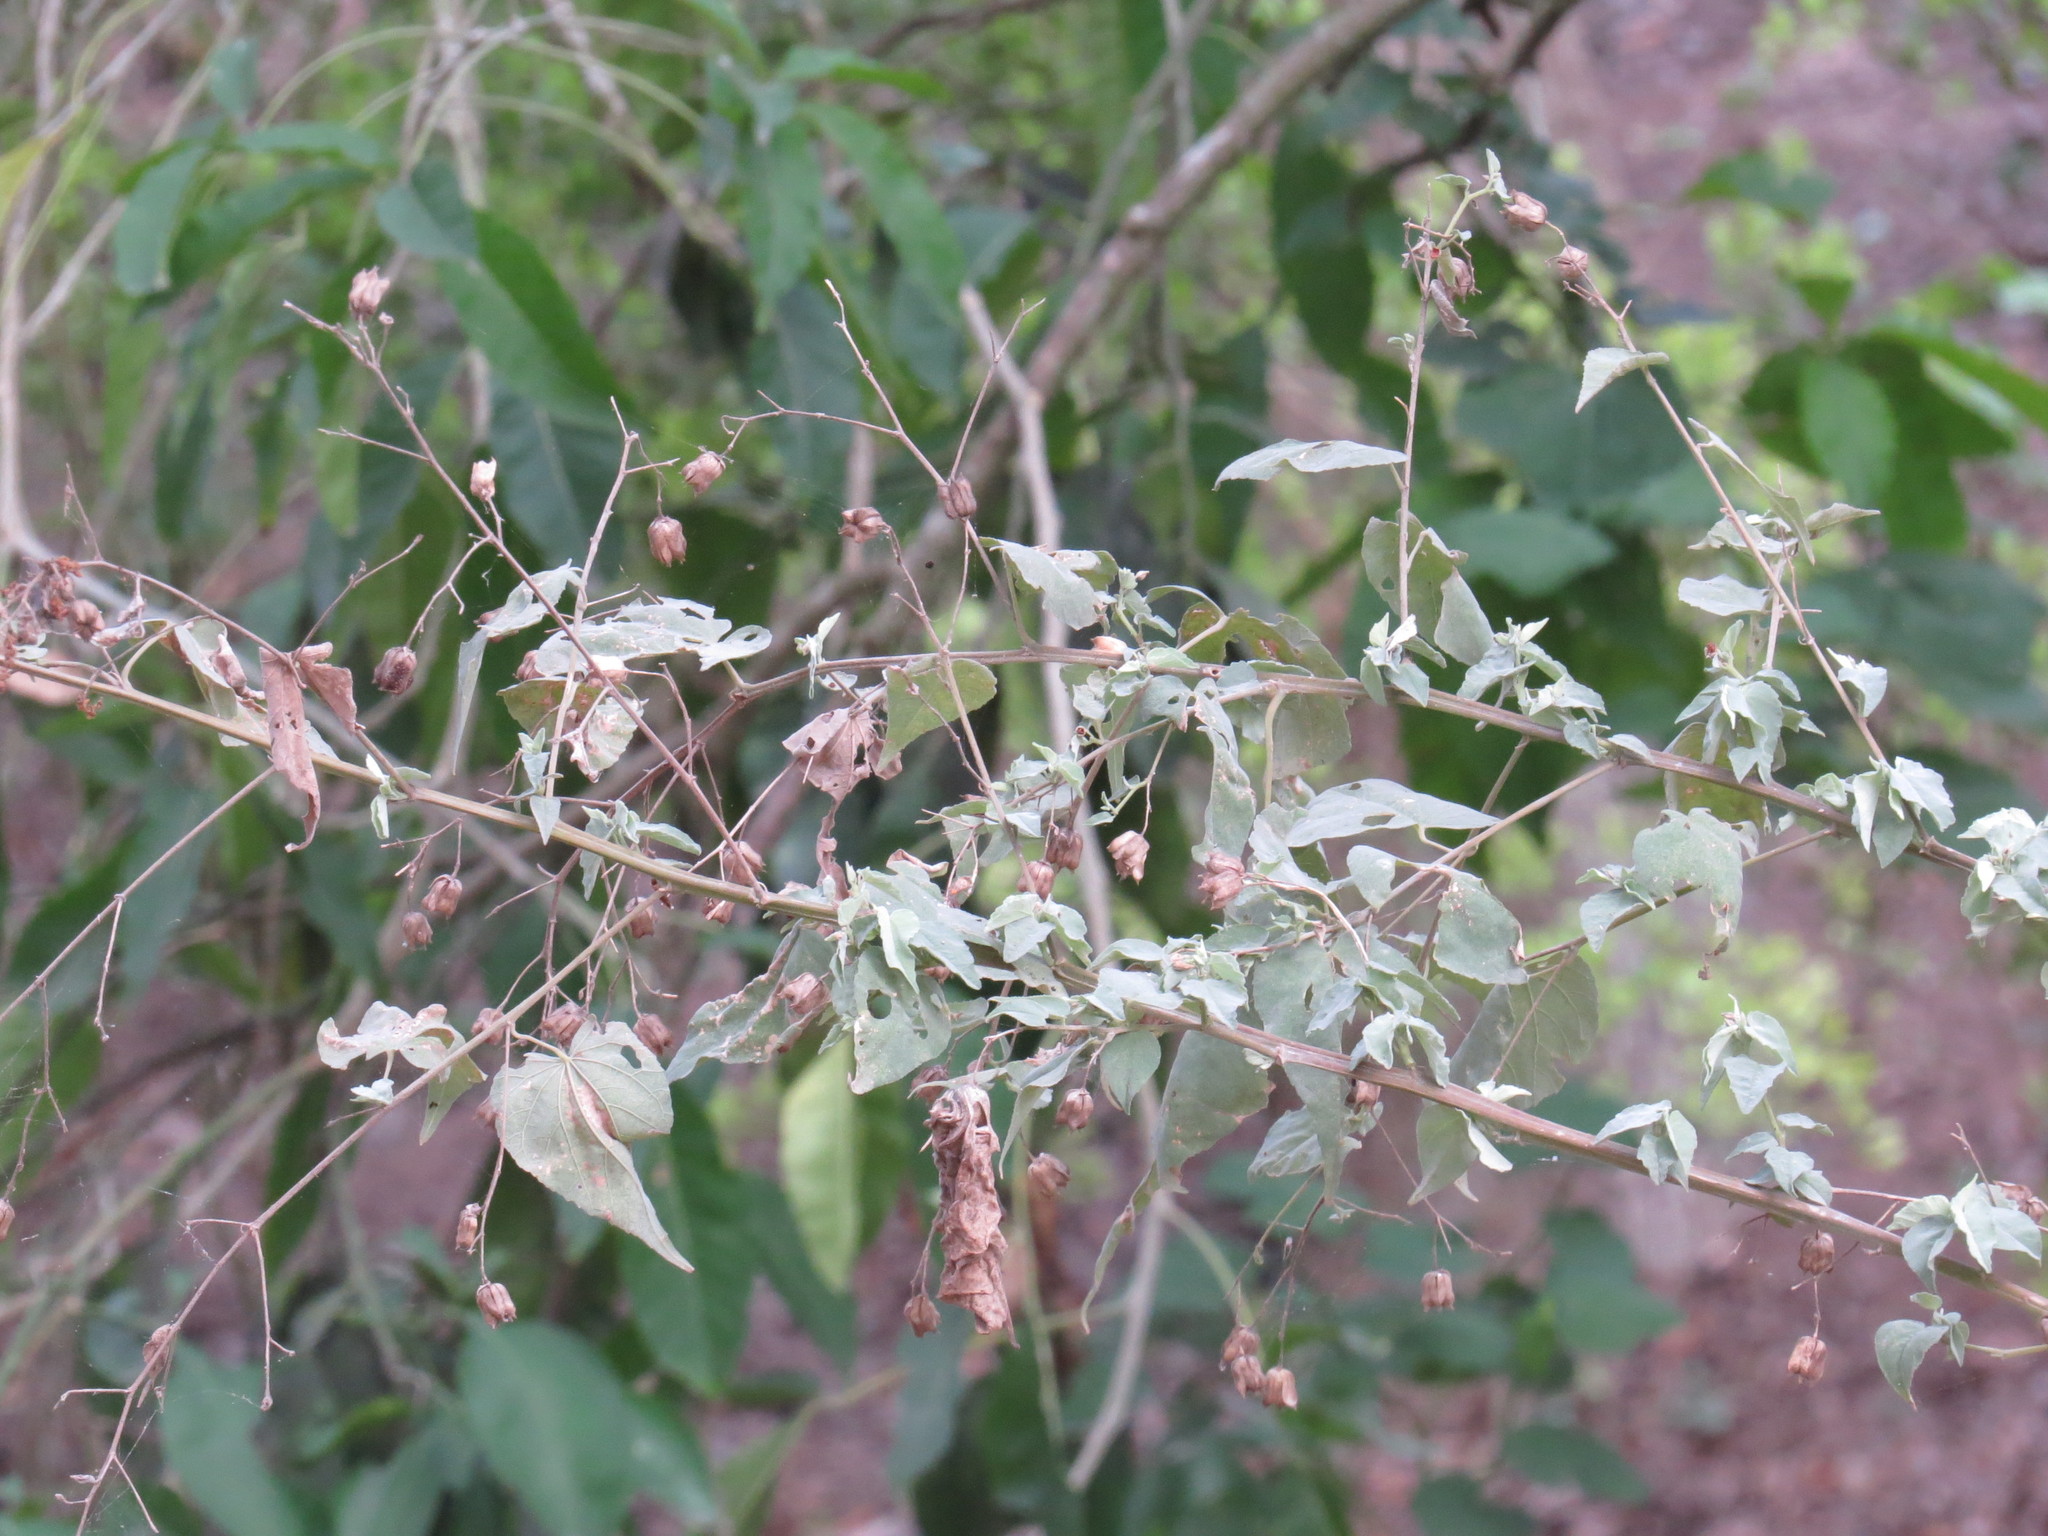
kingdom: Plantae
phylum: Tracheophyta
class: Magnoliopsida
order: Malvales
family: Malvaceae
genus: Abutilon
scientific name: Abutilon trisulcatum
